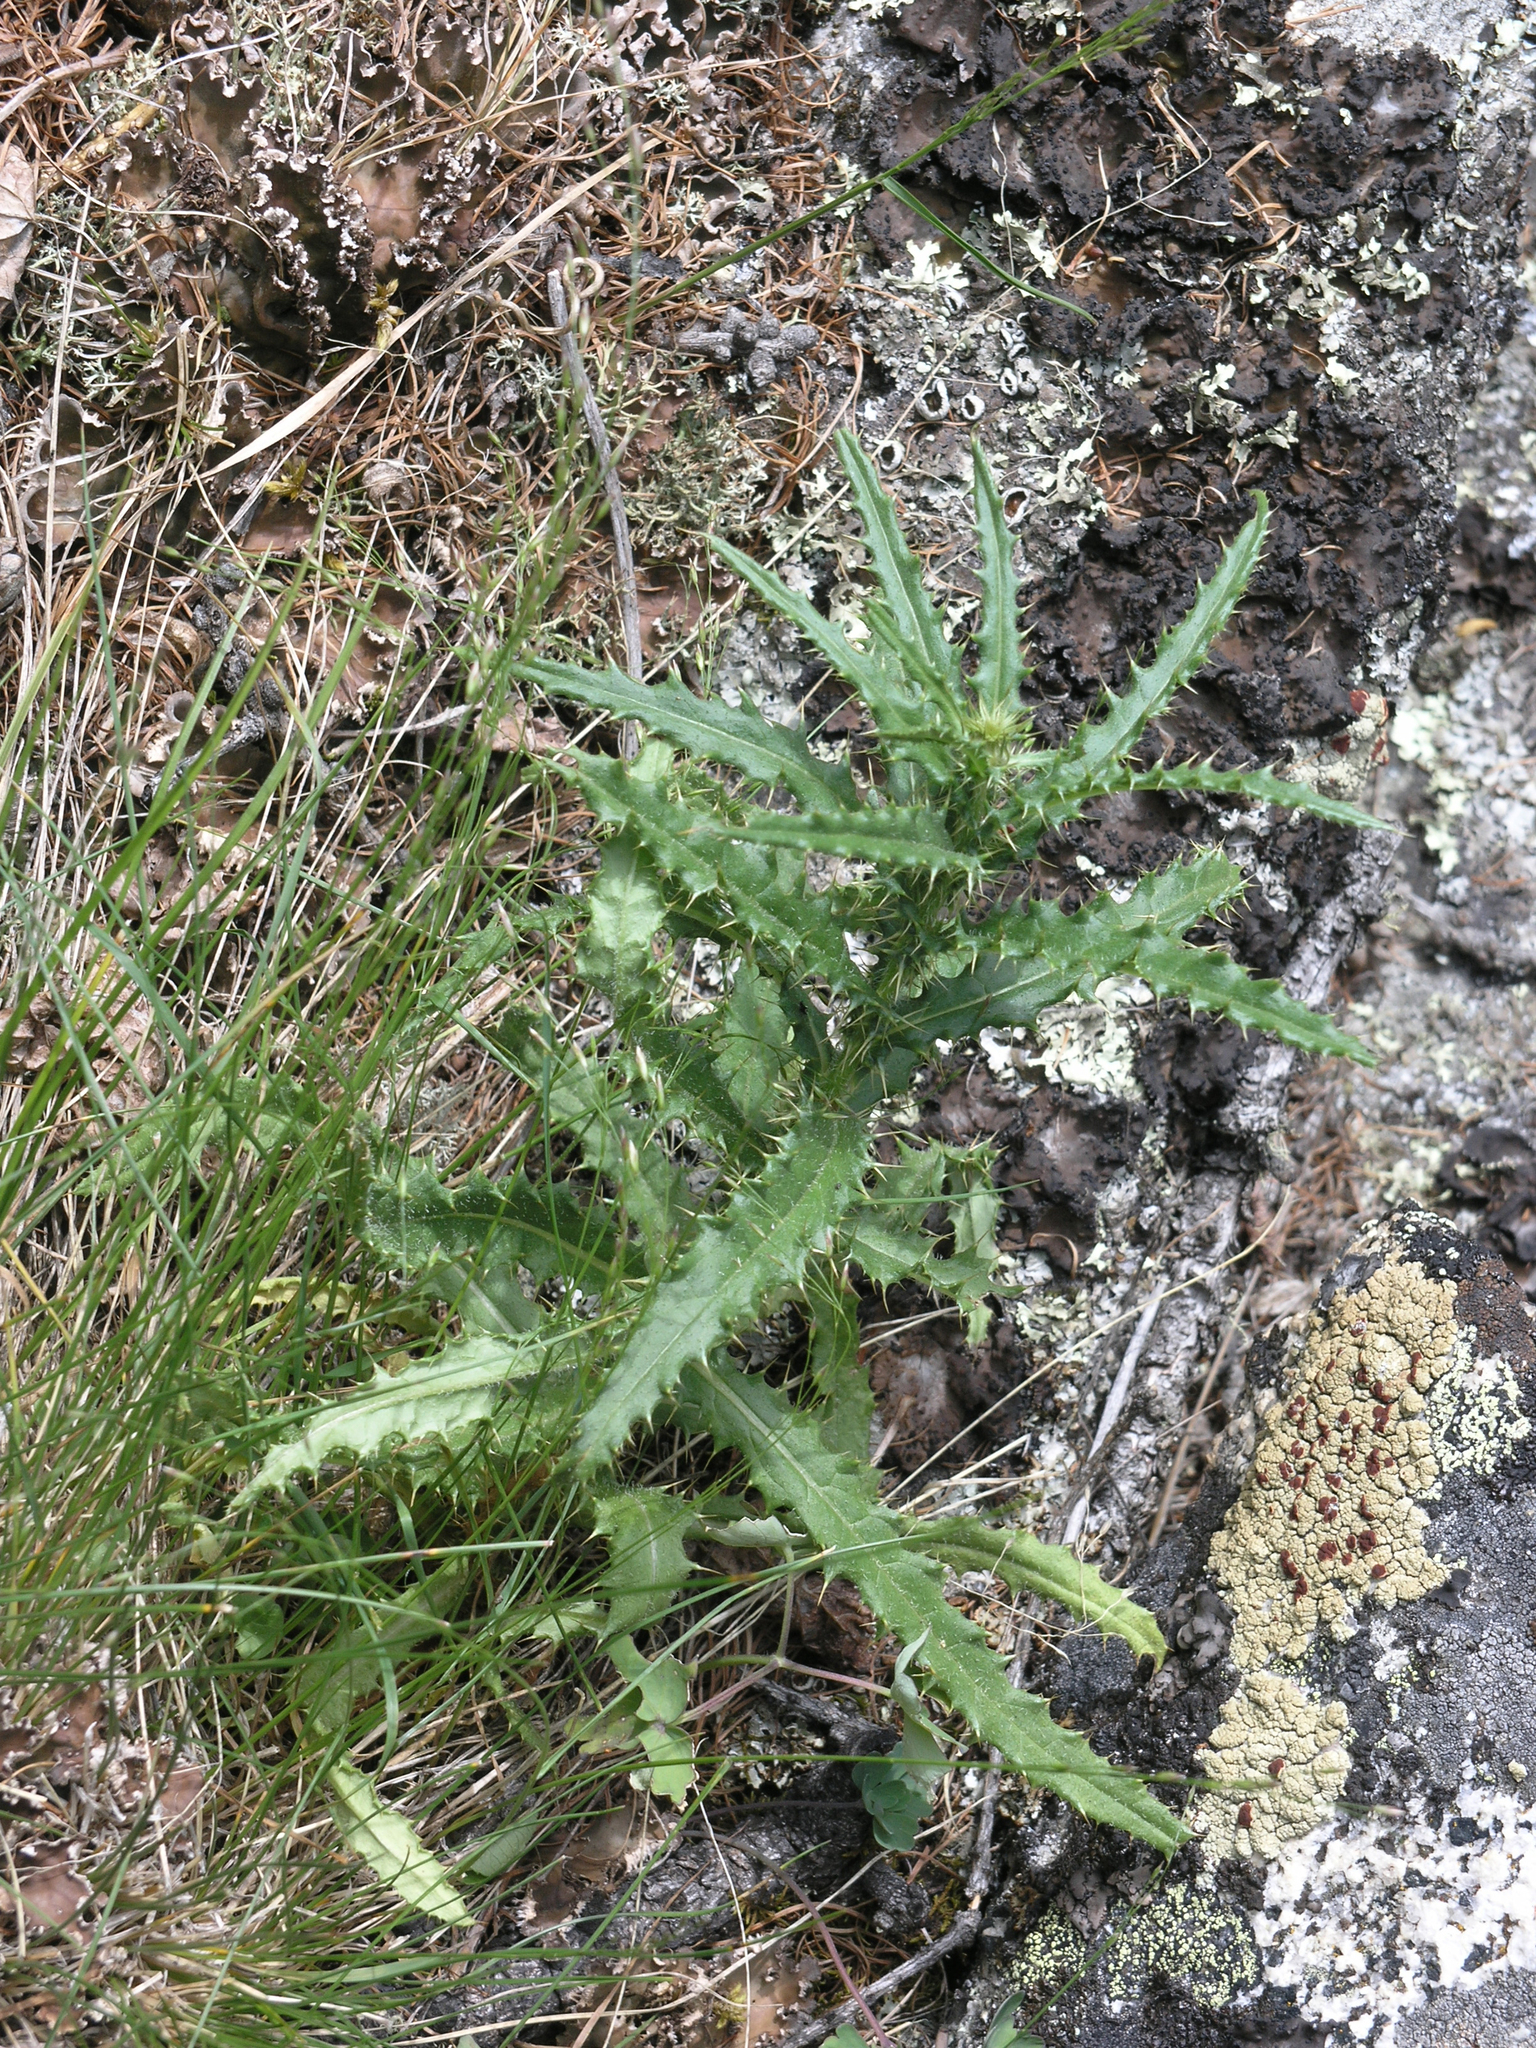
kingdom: Plantae
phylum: Tracheophyta
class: Magnoliopsida
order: Asterales
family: Asteraceae
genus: Cirsium
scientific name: Cirsium serratuloides
